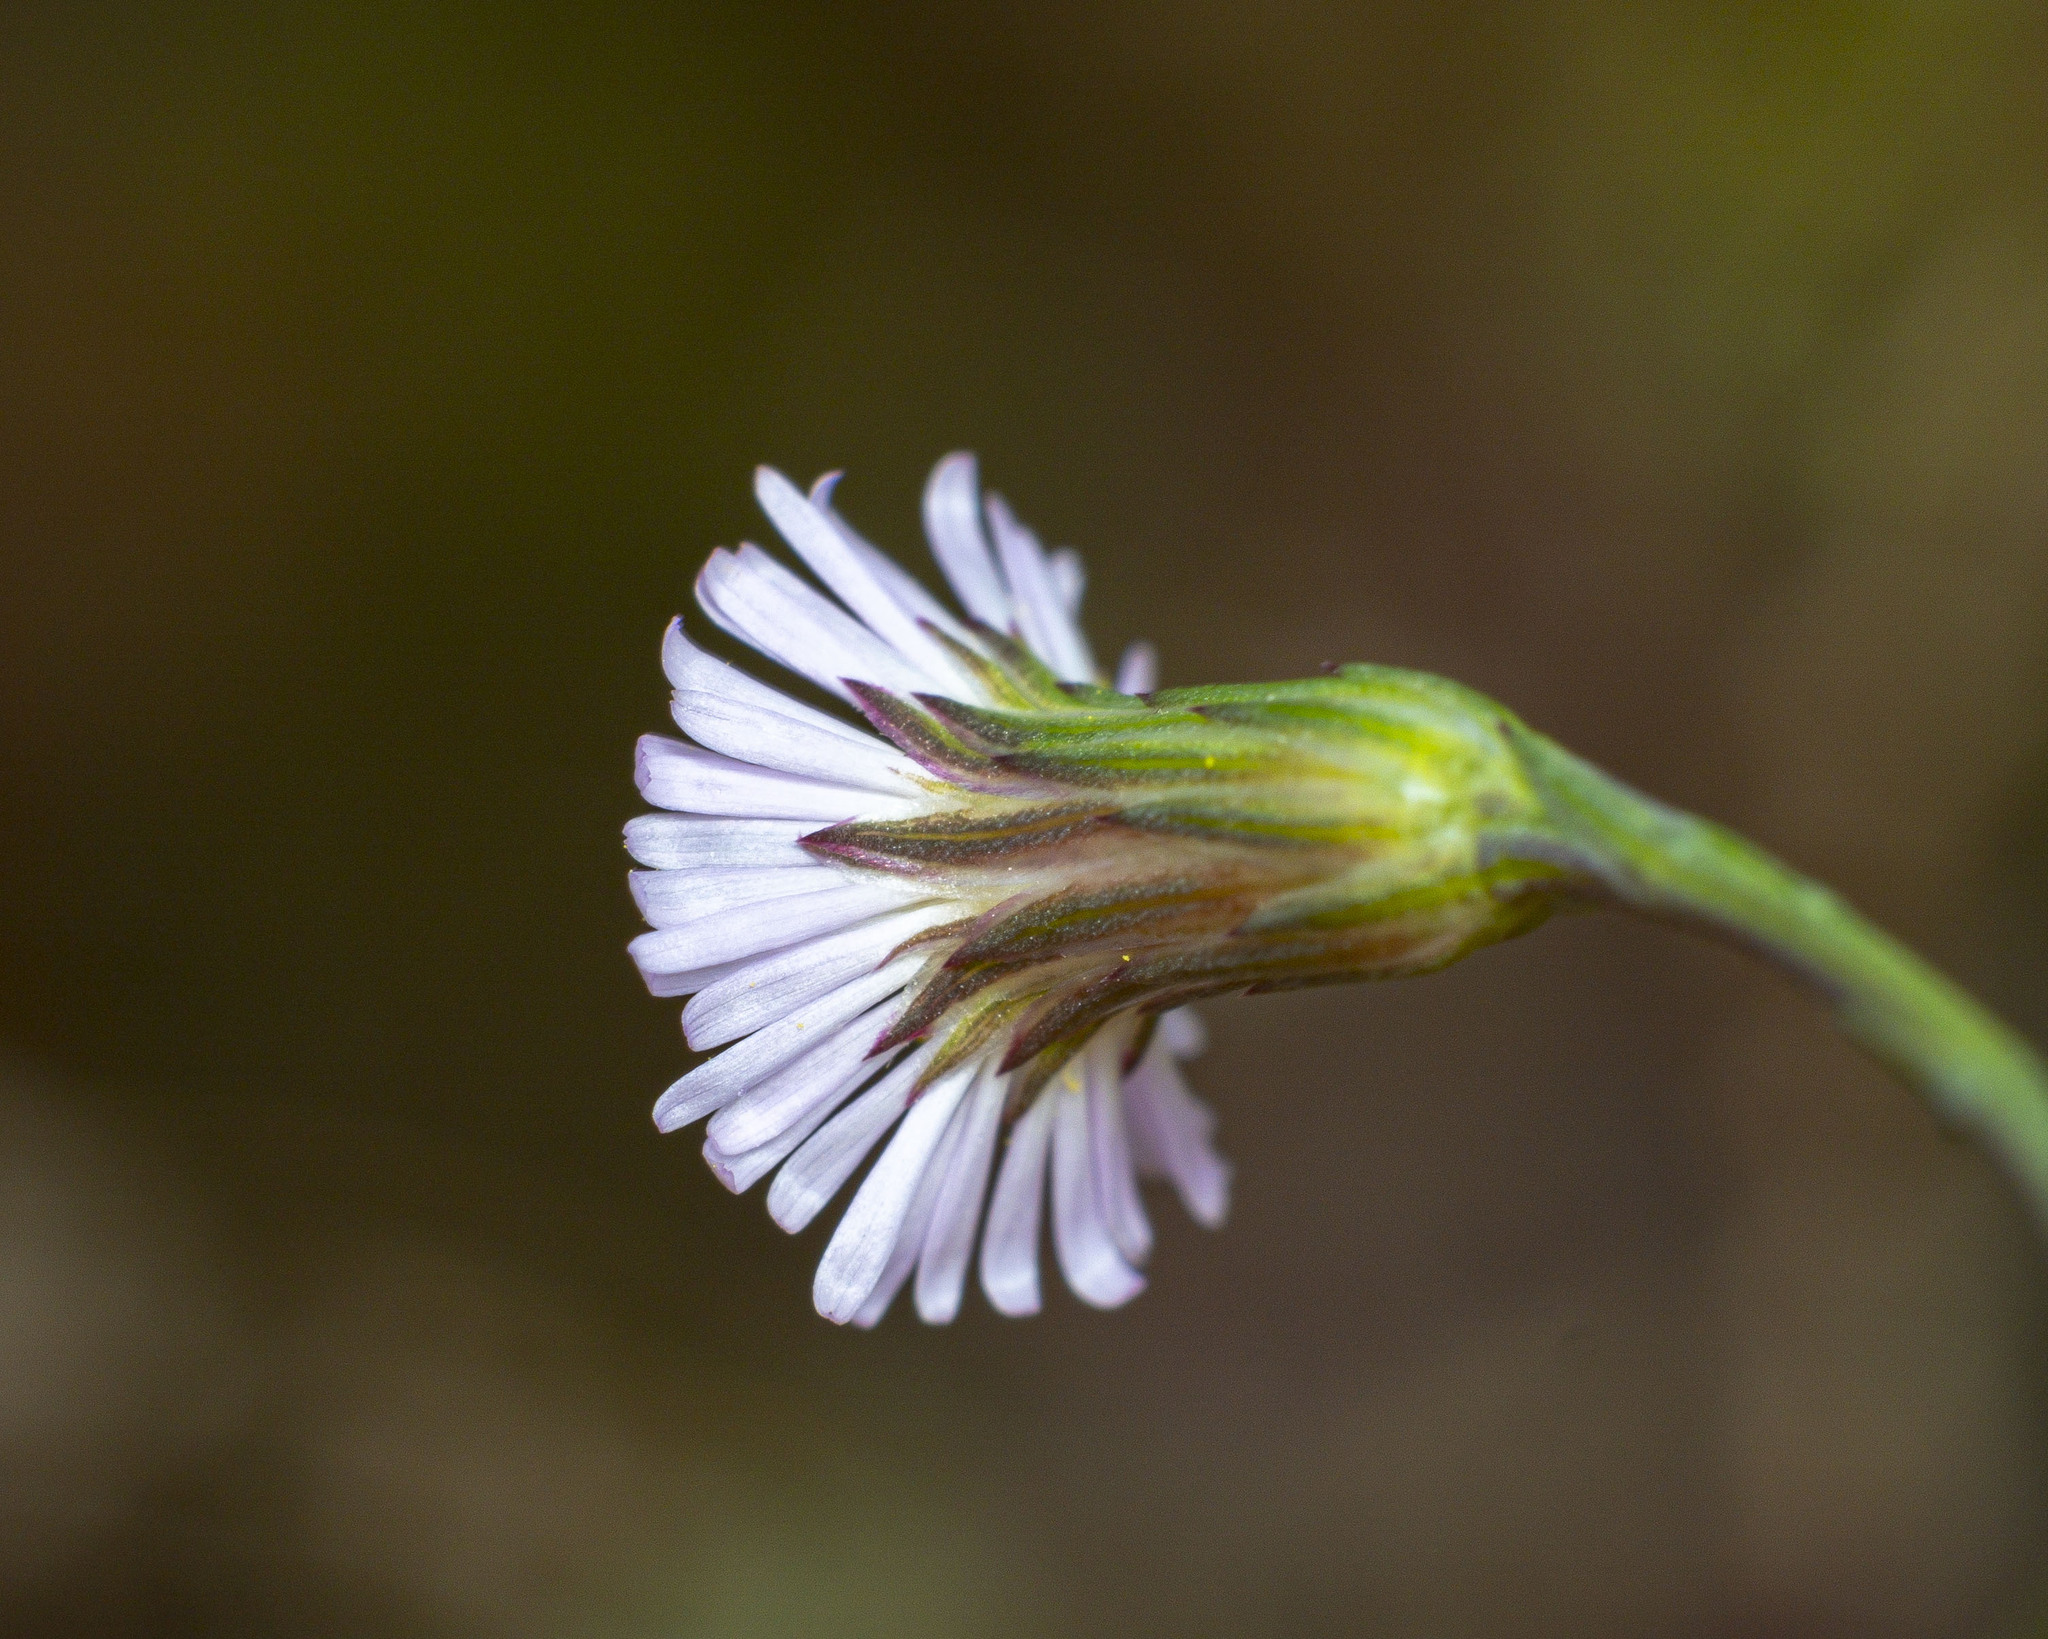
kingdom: Plantae
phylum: Tracheophyta
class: Magnoliopsida
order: Asterales
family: Asteraceae
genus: Symphyotrichum
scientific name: Symphyotrichum subulatum
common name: Annual saltmarsh aster
